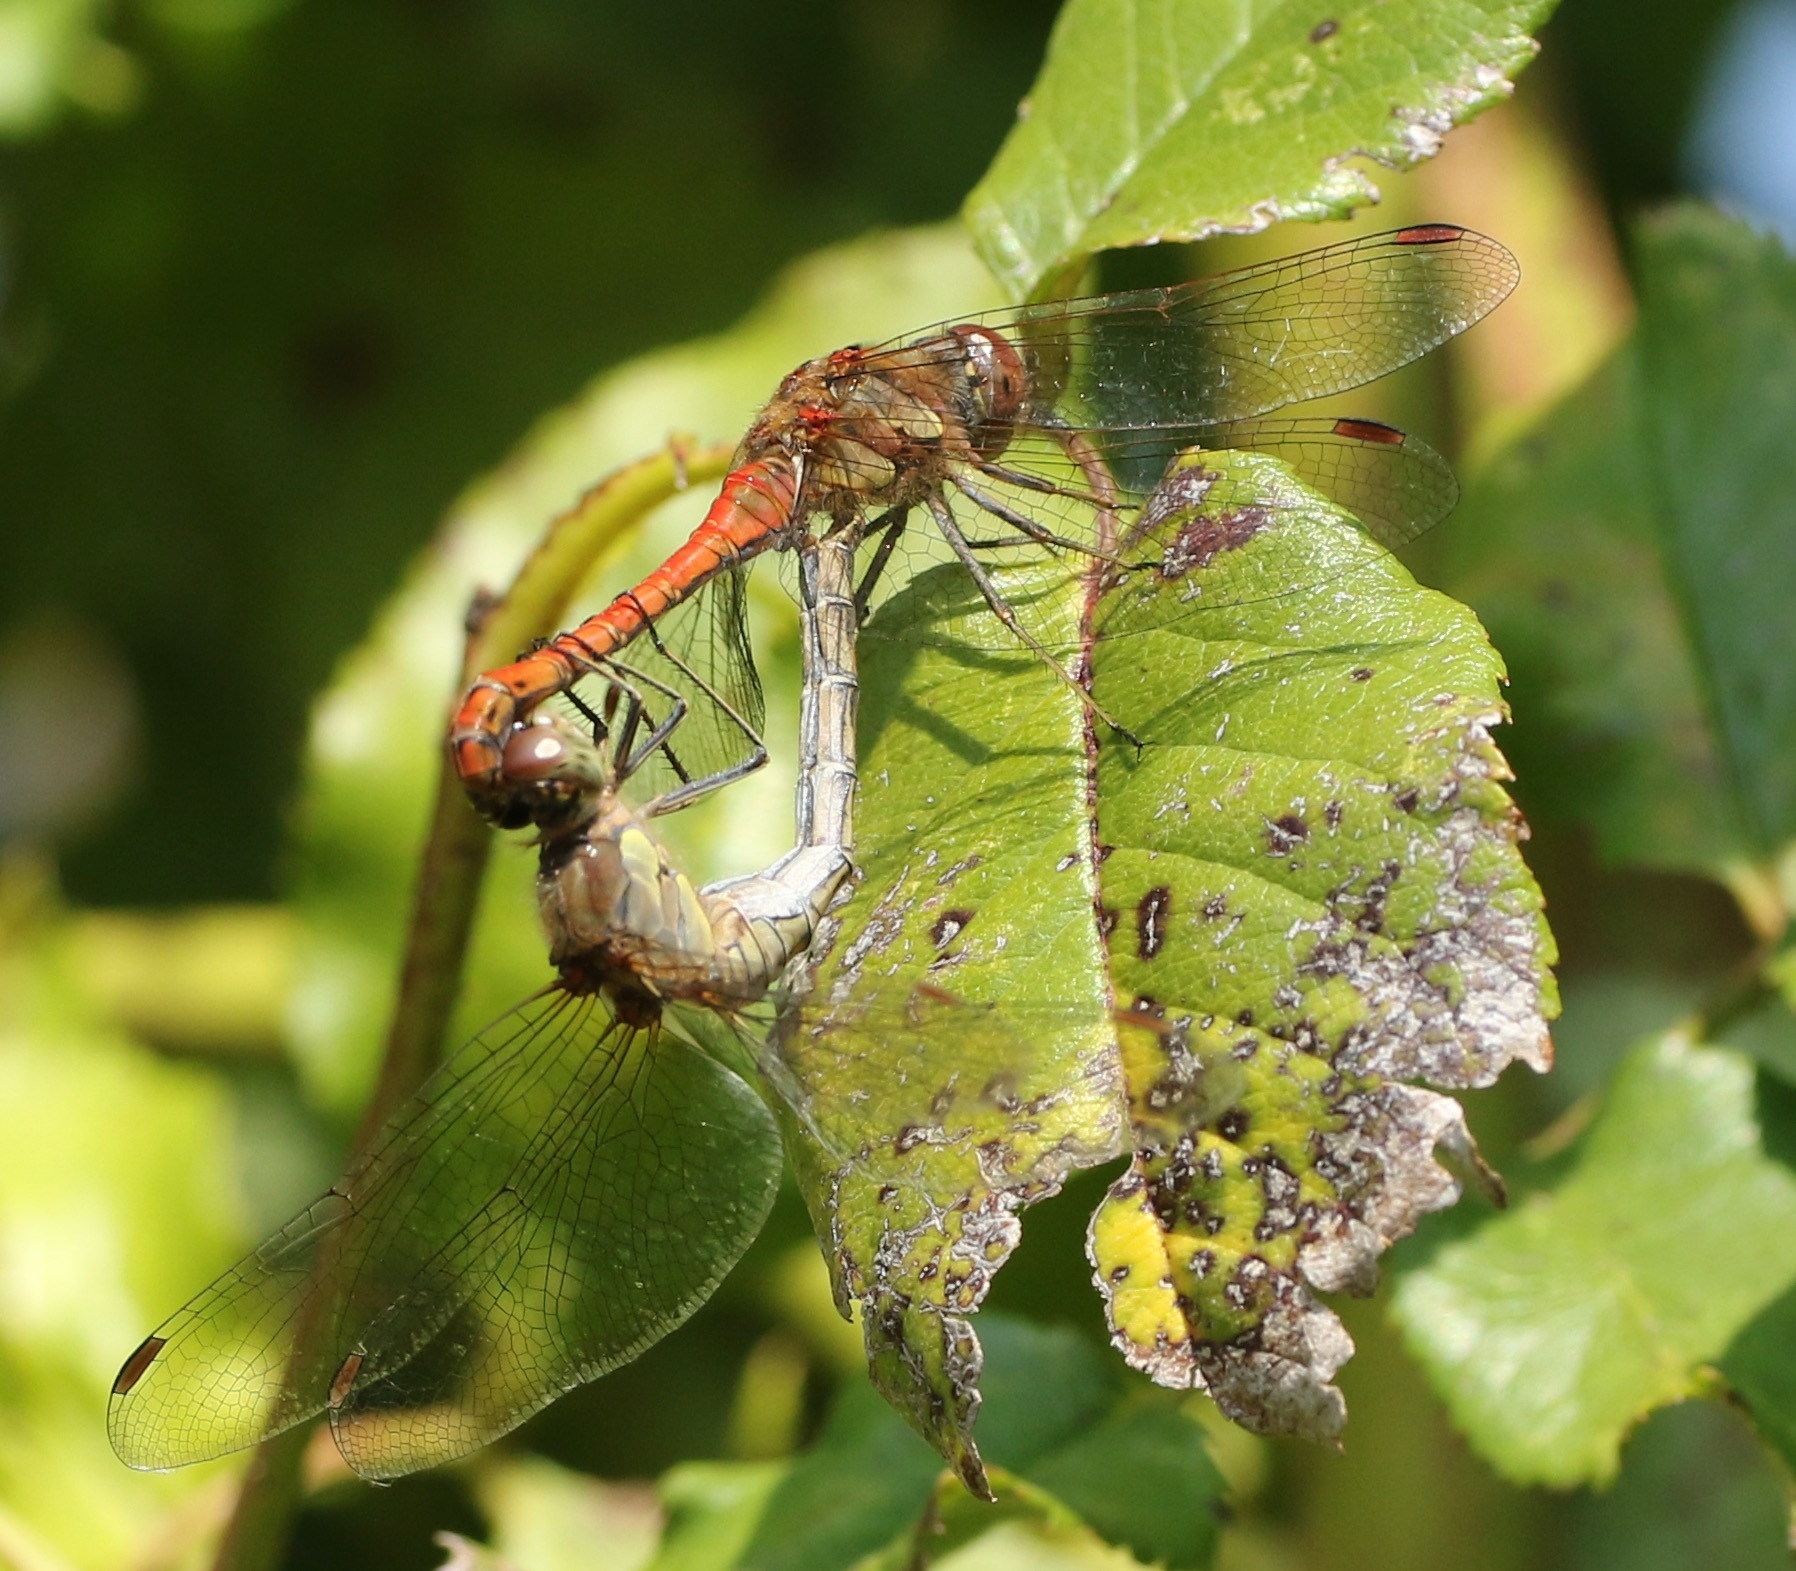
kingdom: Animalia
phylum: Arthropoda
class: Insecta
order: Odonata
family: Libellulidae
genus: Sympetrum
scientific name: Sympetrum striolatum
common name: Common darter
